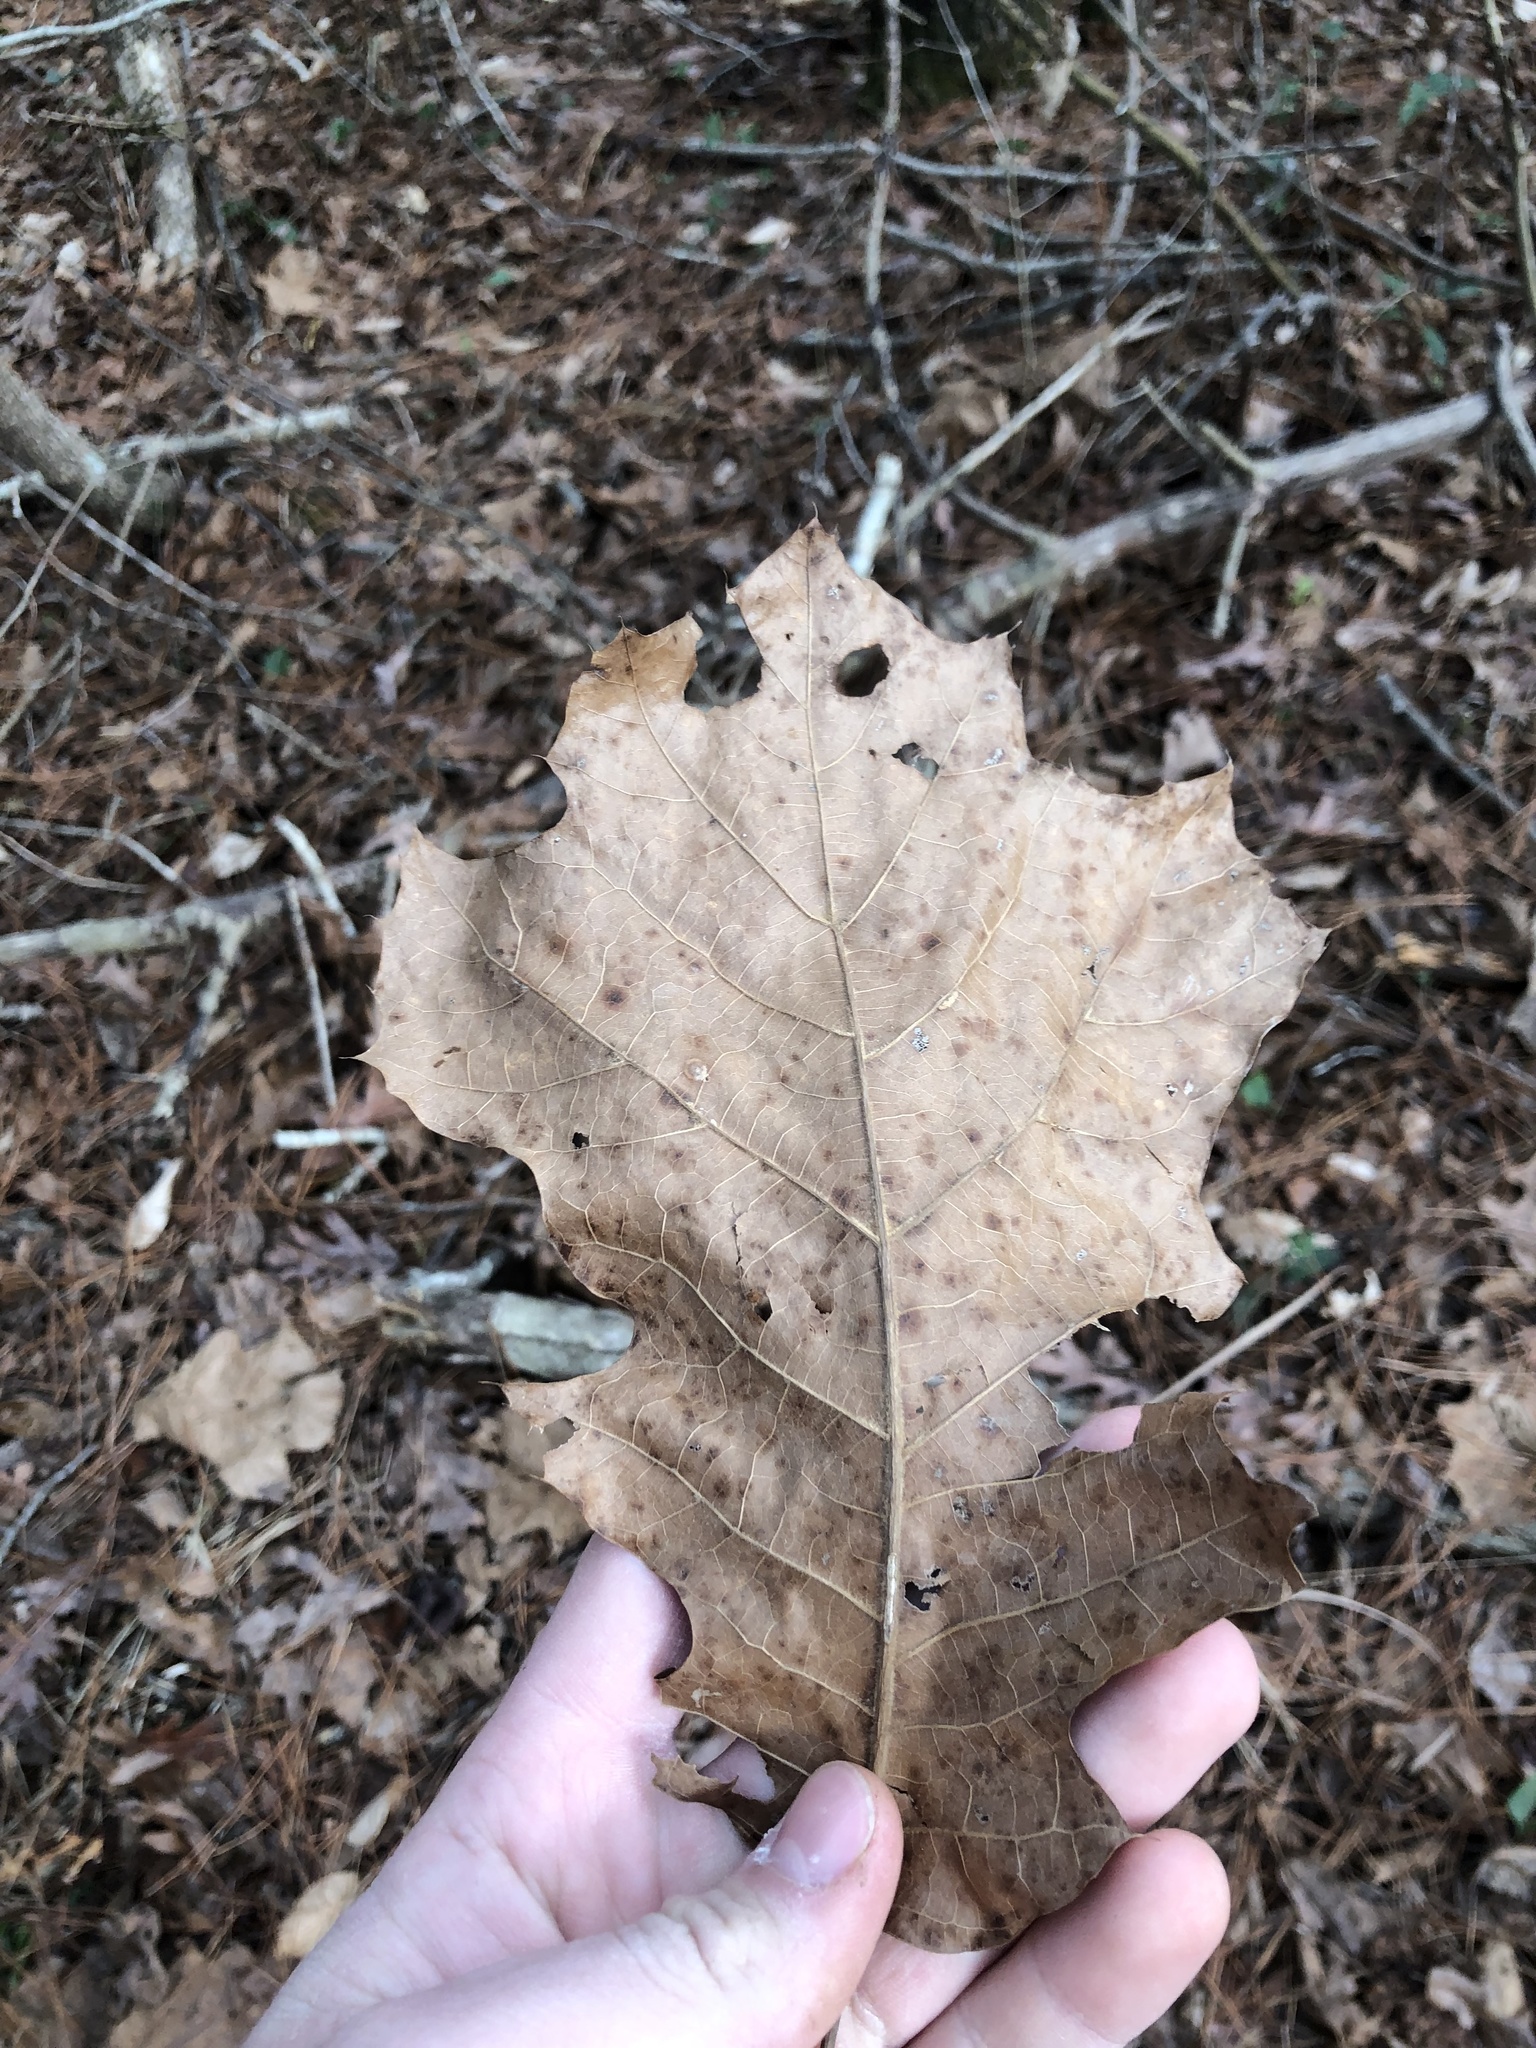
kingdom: Plantae
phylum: Tracheophyta
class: Magnoliopsida
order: Fagales
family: Fagaceae
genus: Quercus
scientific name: Quercus velutina
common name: Black oak
